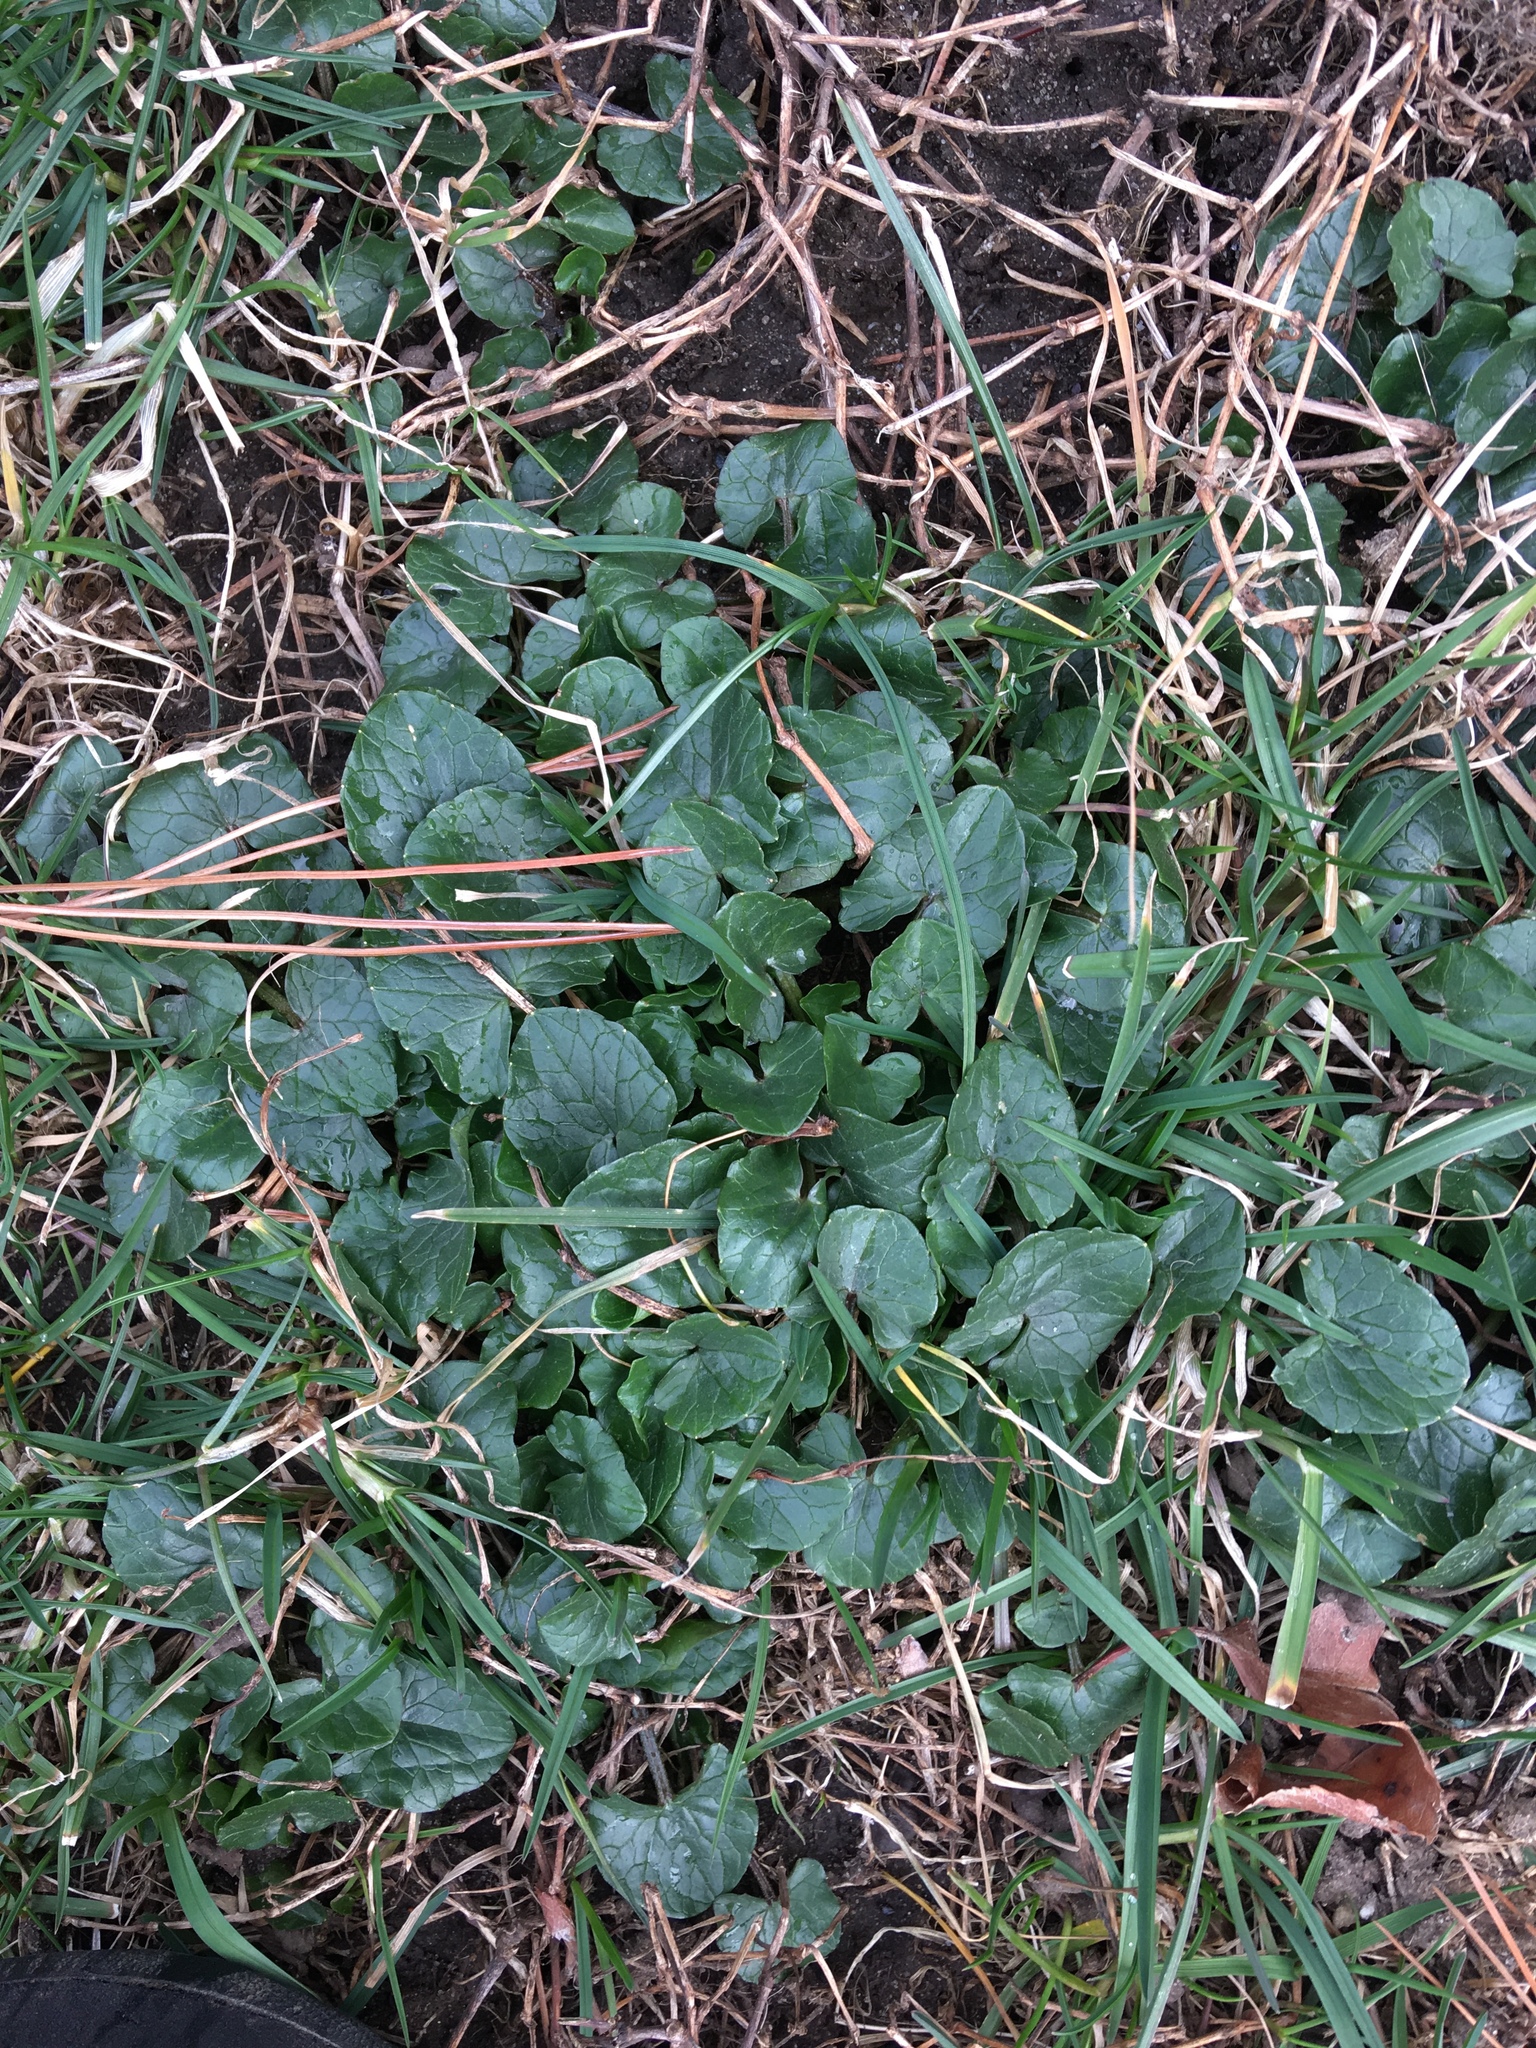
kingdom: Plantae
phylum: Tracheophyta
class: Magnoliopsida
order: Ranunculales
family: Ranunculaceae
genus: Ficaria
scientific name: Ficaria verna
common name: Lesser celandine
